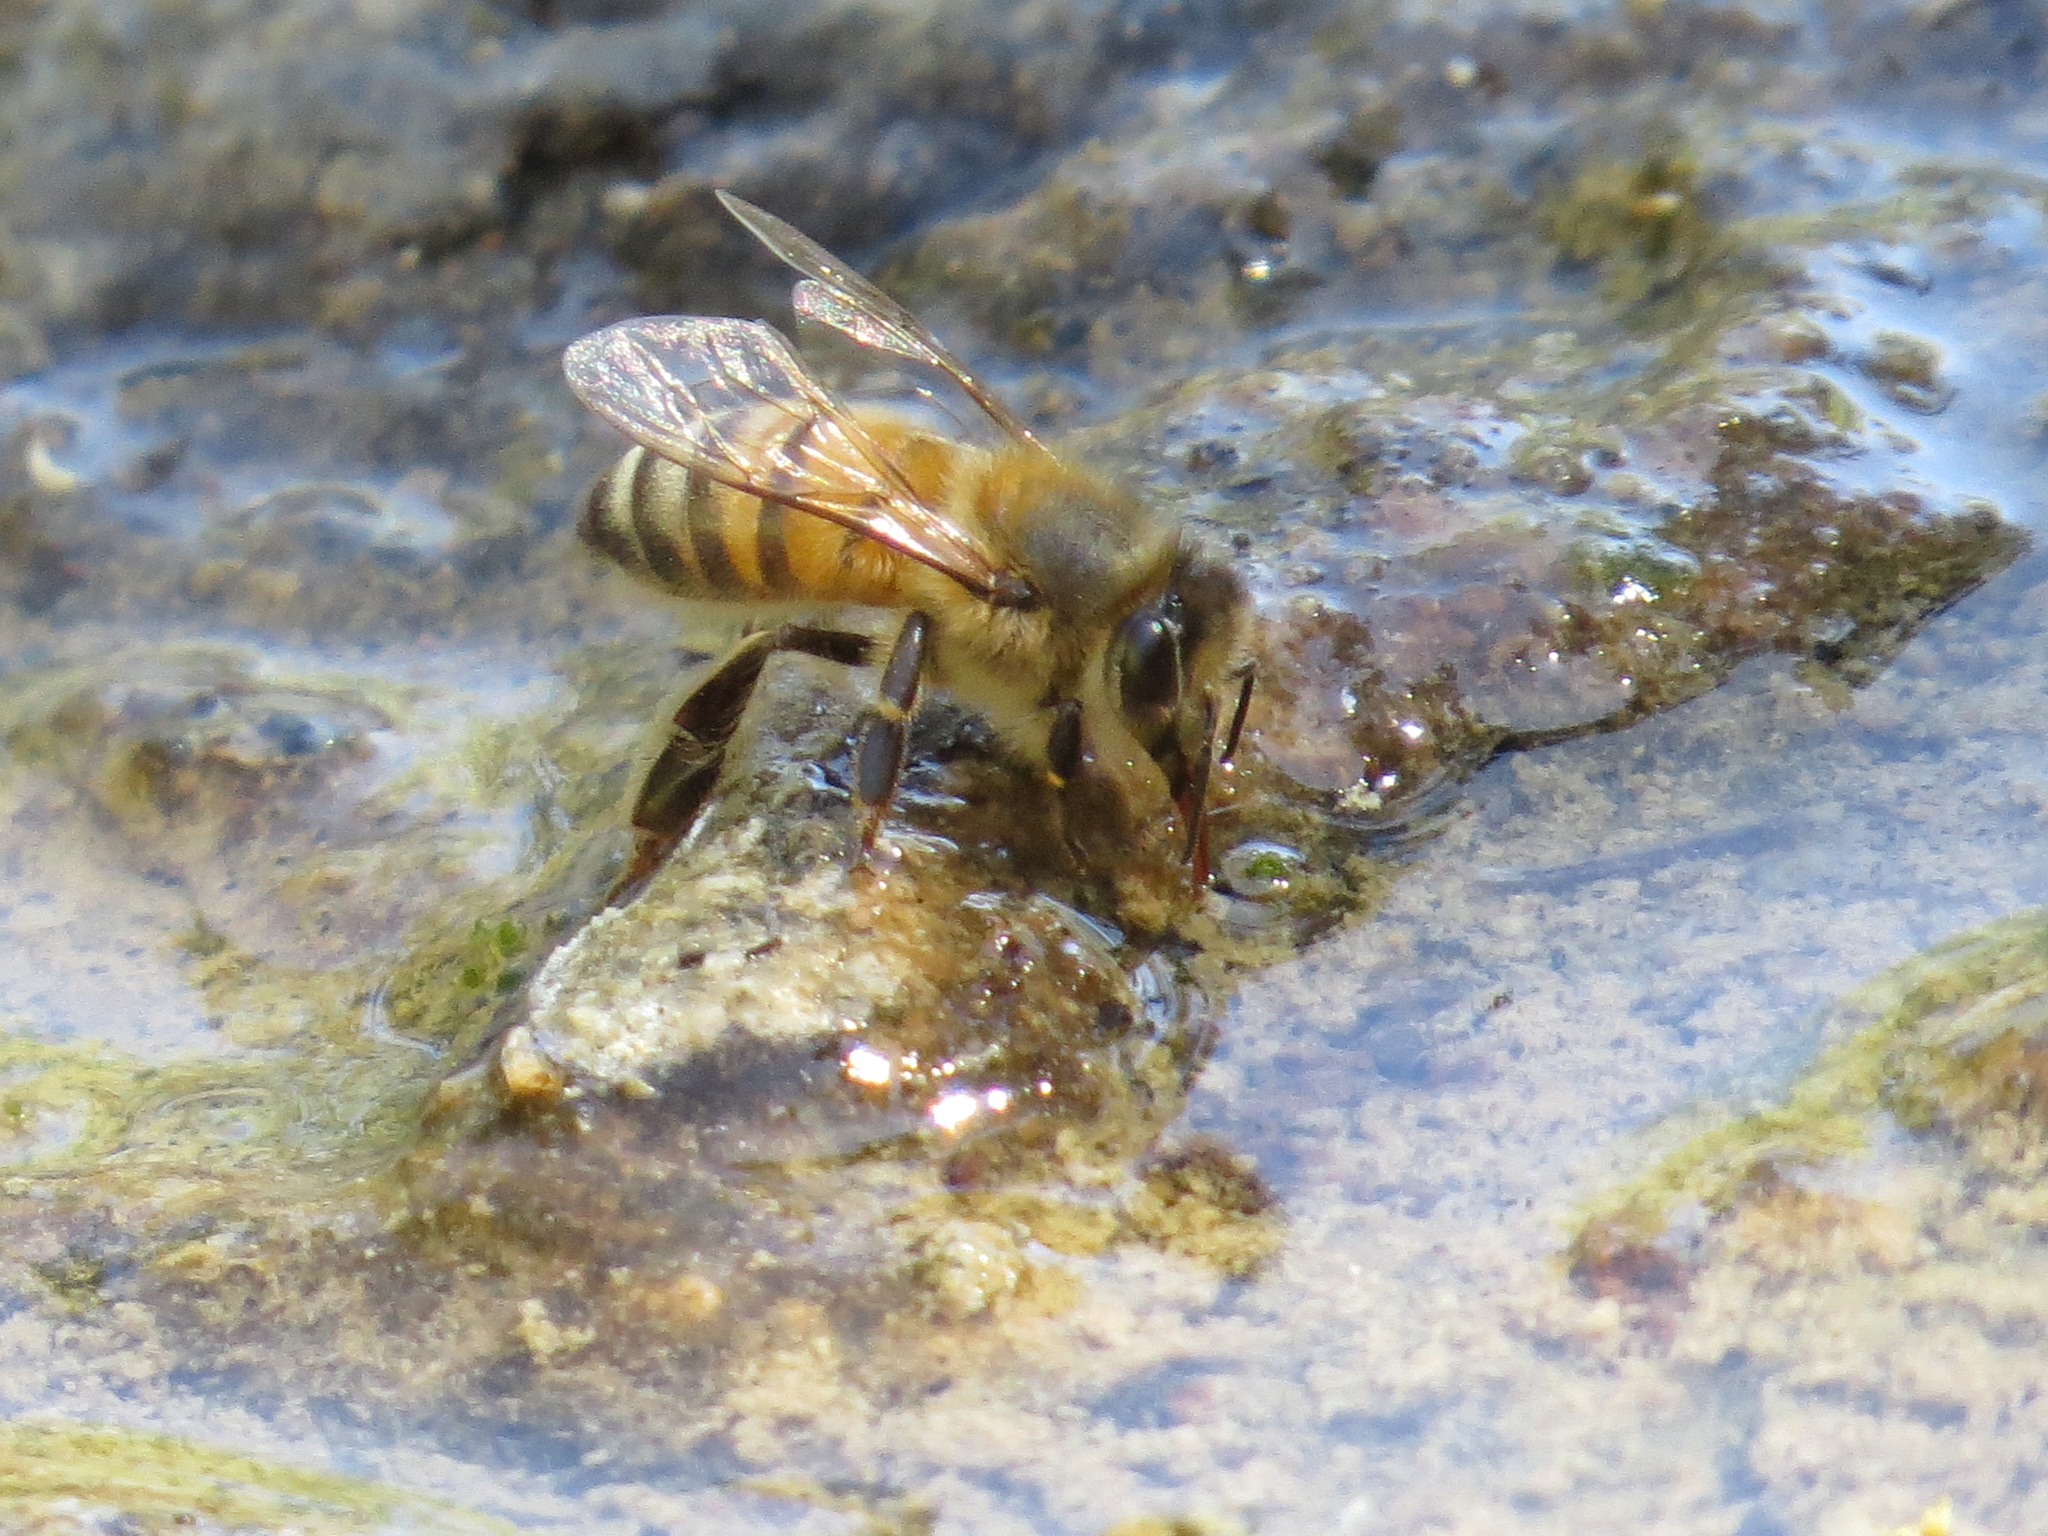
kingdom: Animalia
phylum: Arthropoda
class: Insecta
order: Hymenoptera
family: Apidae
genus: Apis
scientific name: Apis mellifera
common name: Honey bee
